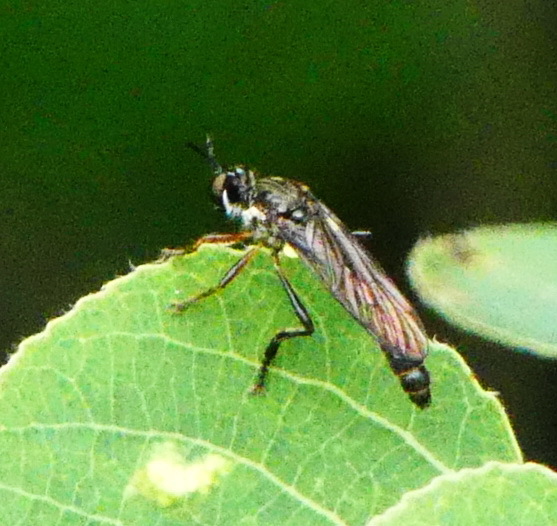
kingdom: Animalia
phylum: Arthropoda
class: Insecta
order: Diptera
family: Asilidae
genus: Dioctria
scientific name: Dioctria hyalipennis
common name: Stripe-legged robberfly
